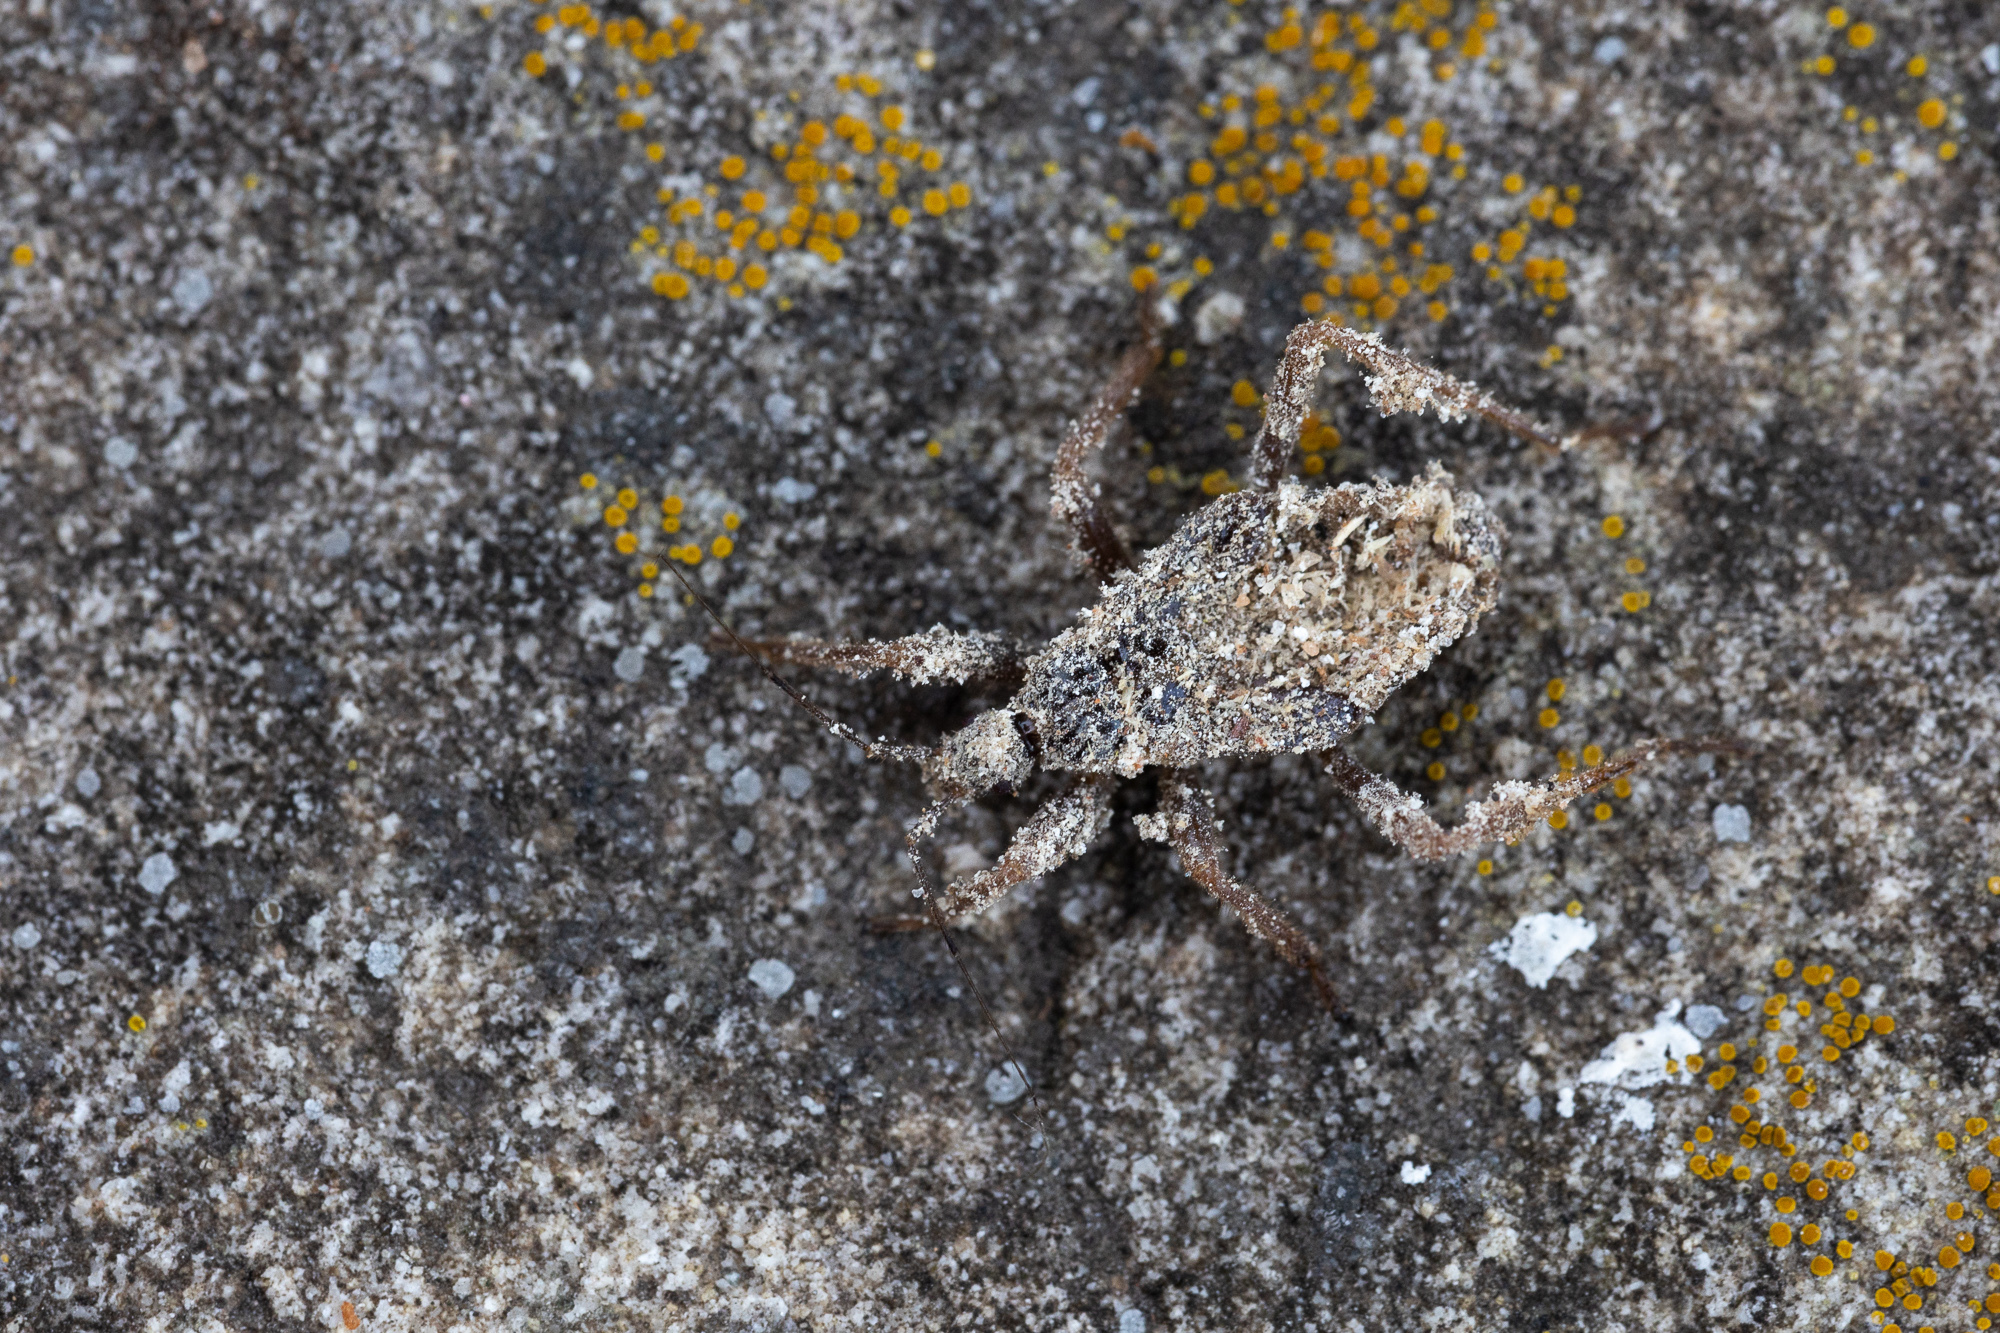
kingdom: Animalia
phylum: Arthropoda
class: Insecta
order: Hemiptera
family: Reduviidae
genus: Reduvius
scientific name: Reduvius personatus
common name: Masked hunter
